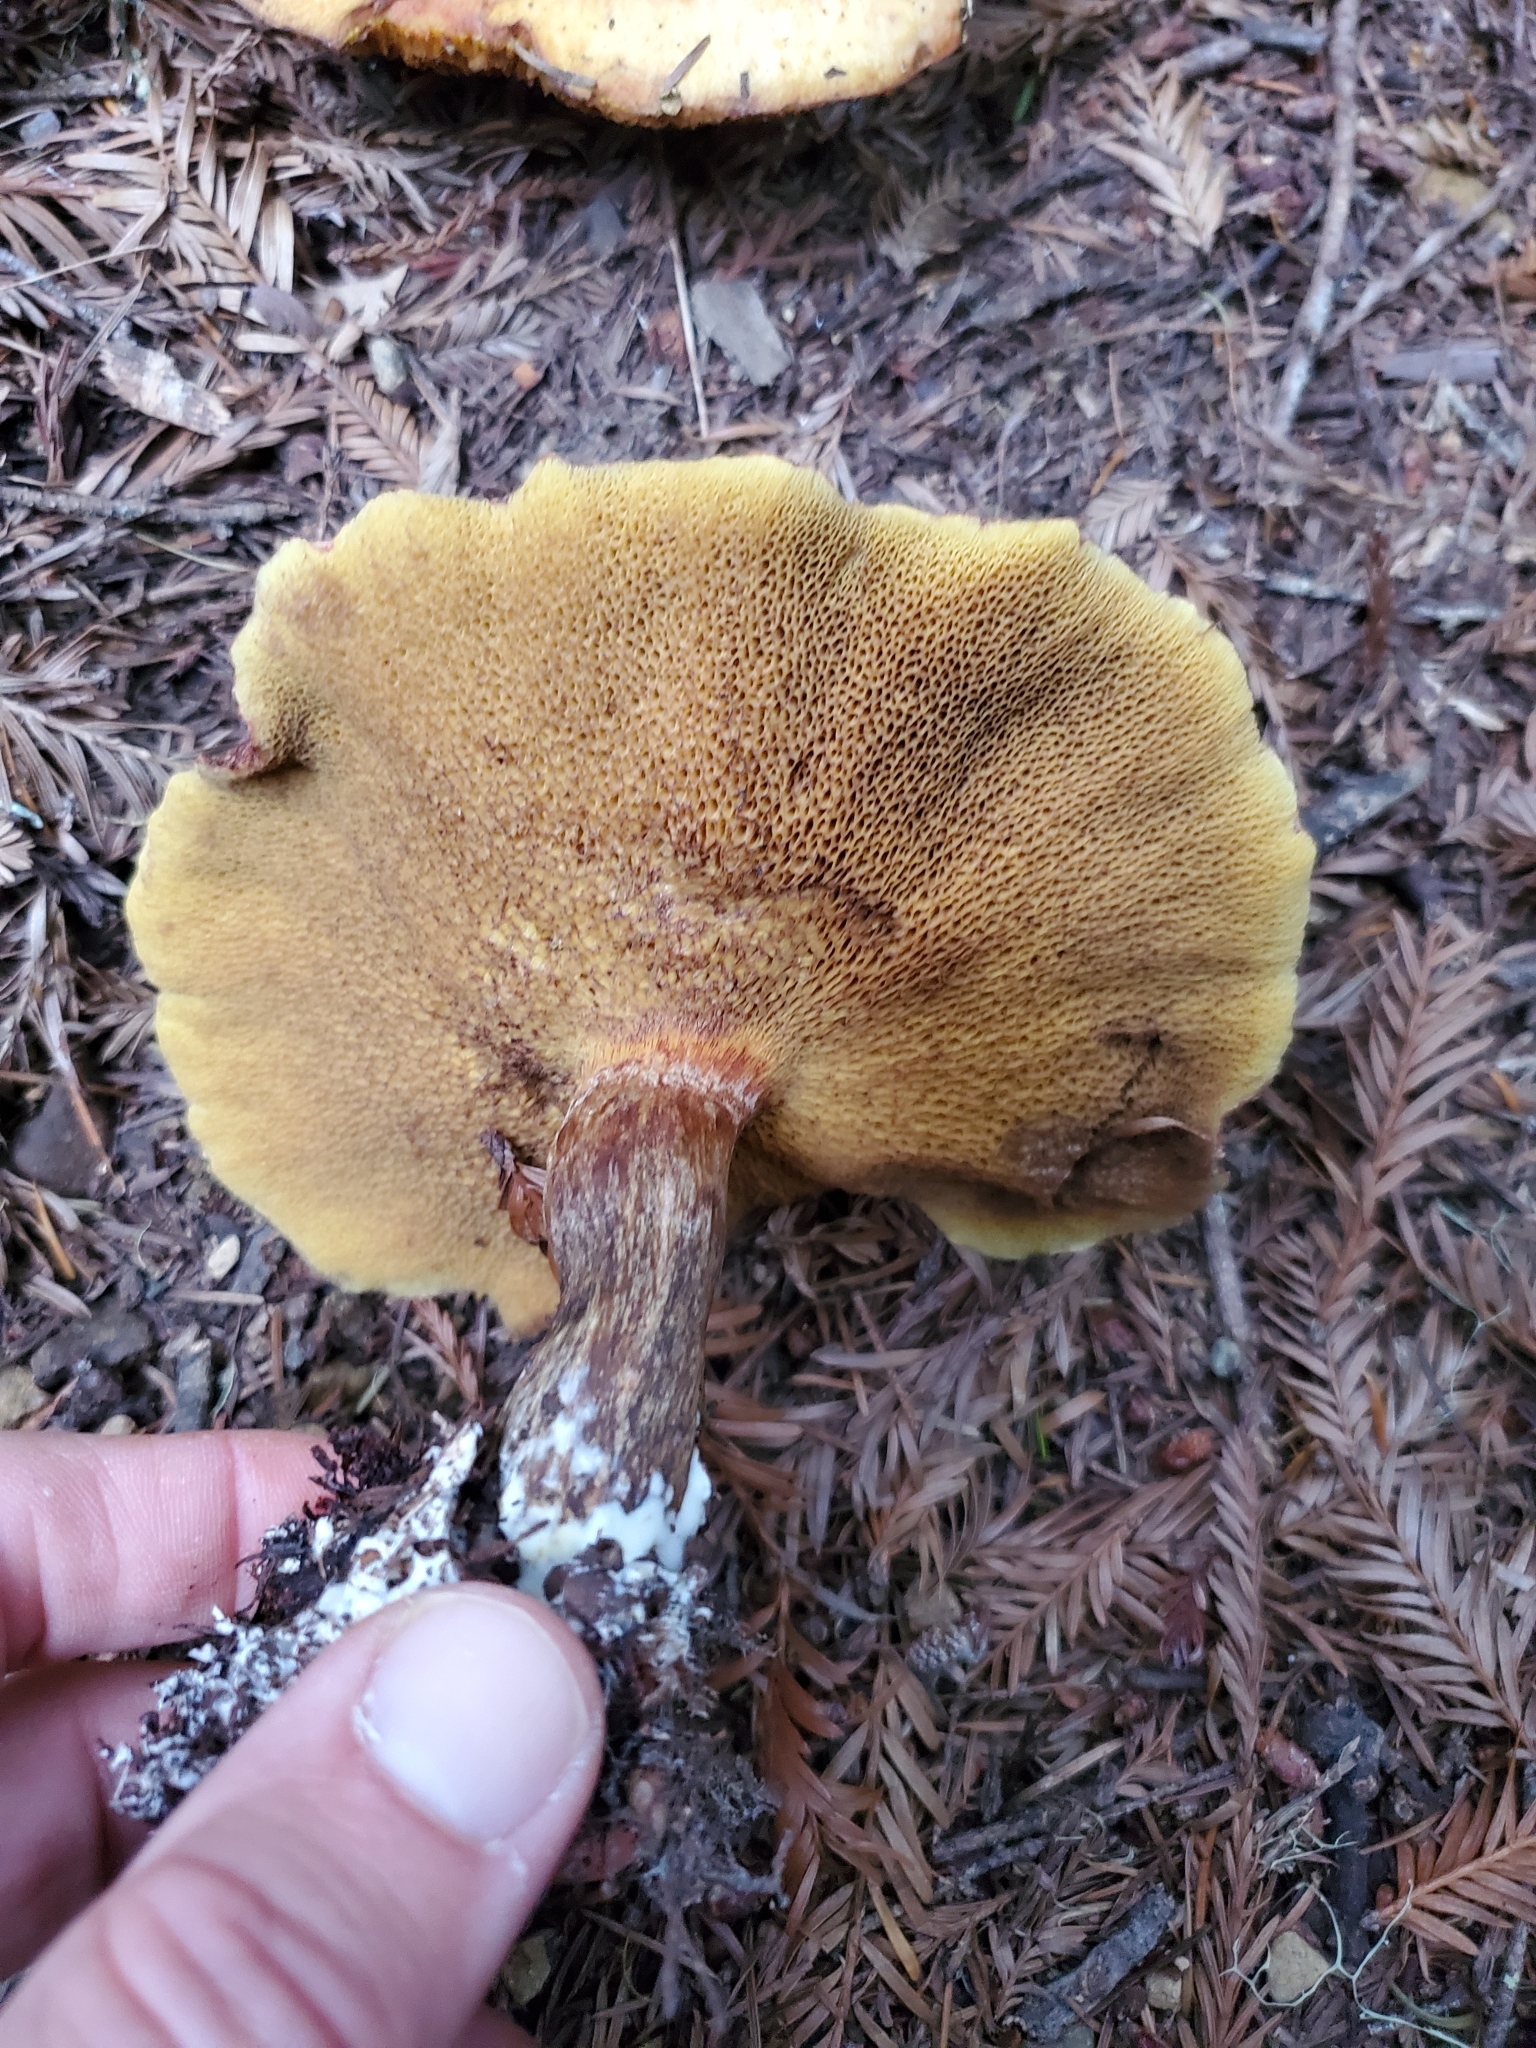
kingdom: Fungi
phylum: Basidiomycota
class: Agaricomycetes
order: Boletales
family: Suillaceae
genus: Suillus
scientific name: Suillus lakei
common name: Western painted suillus
